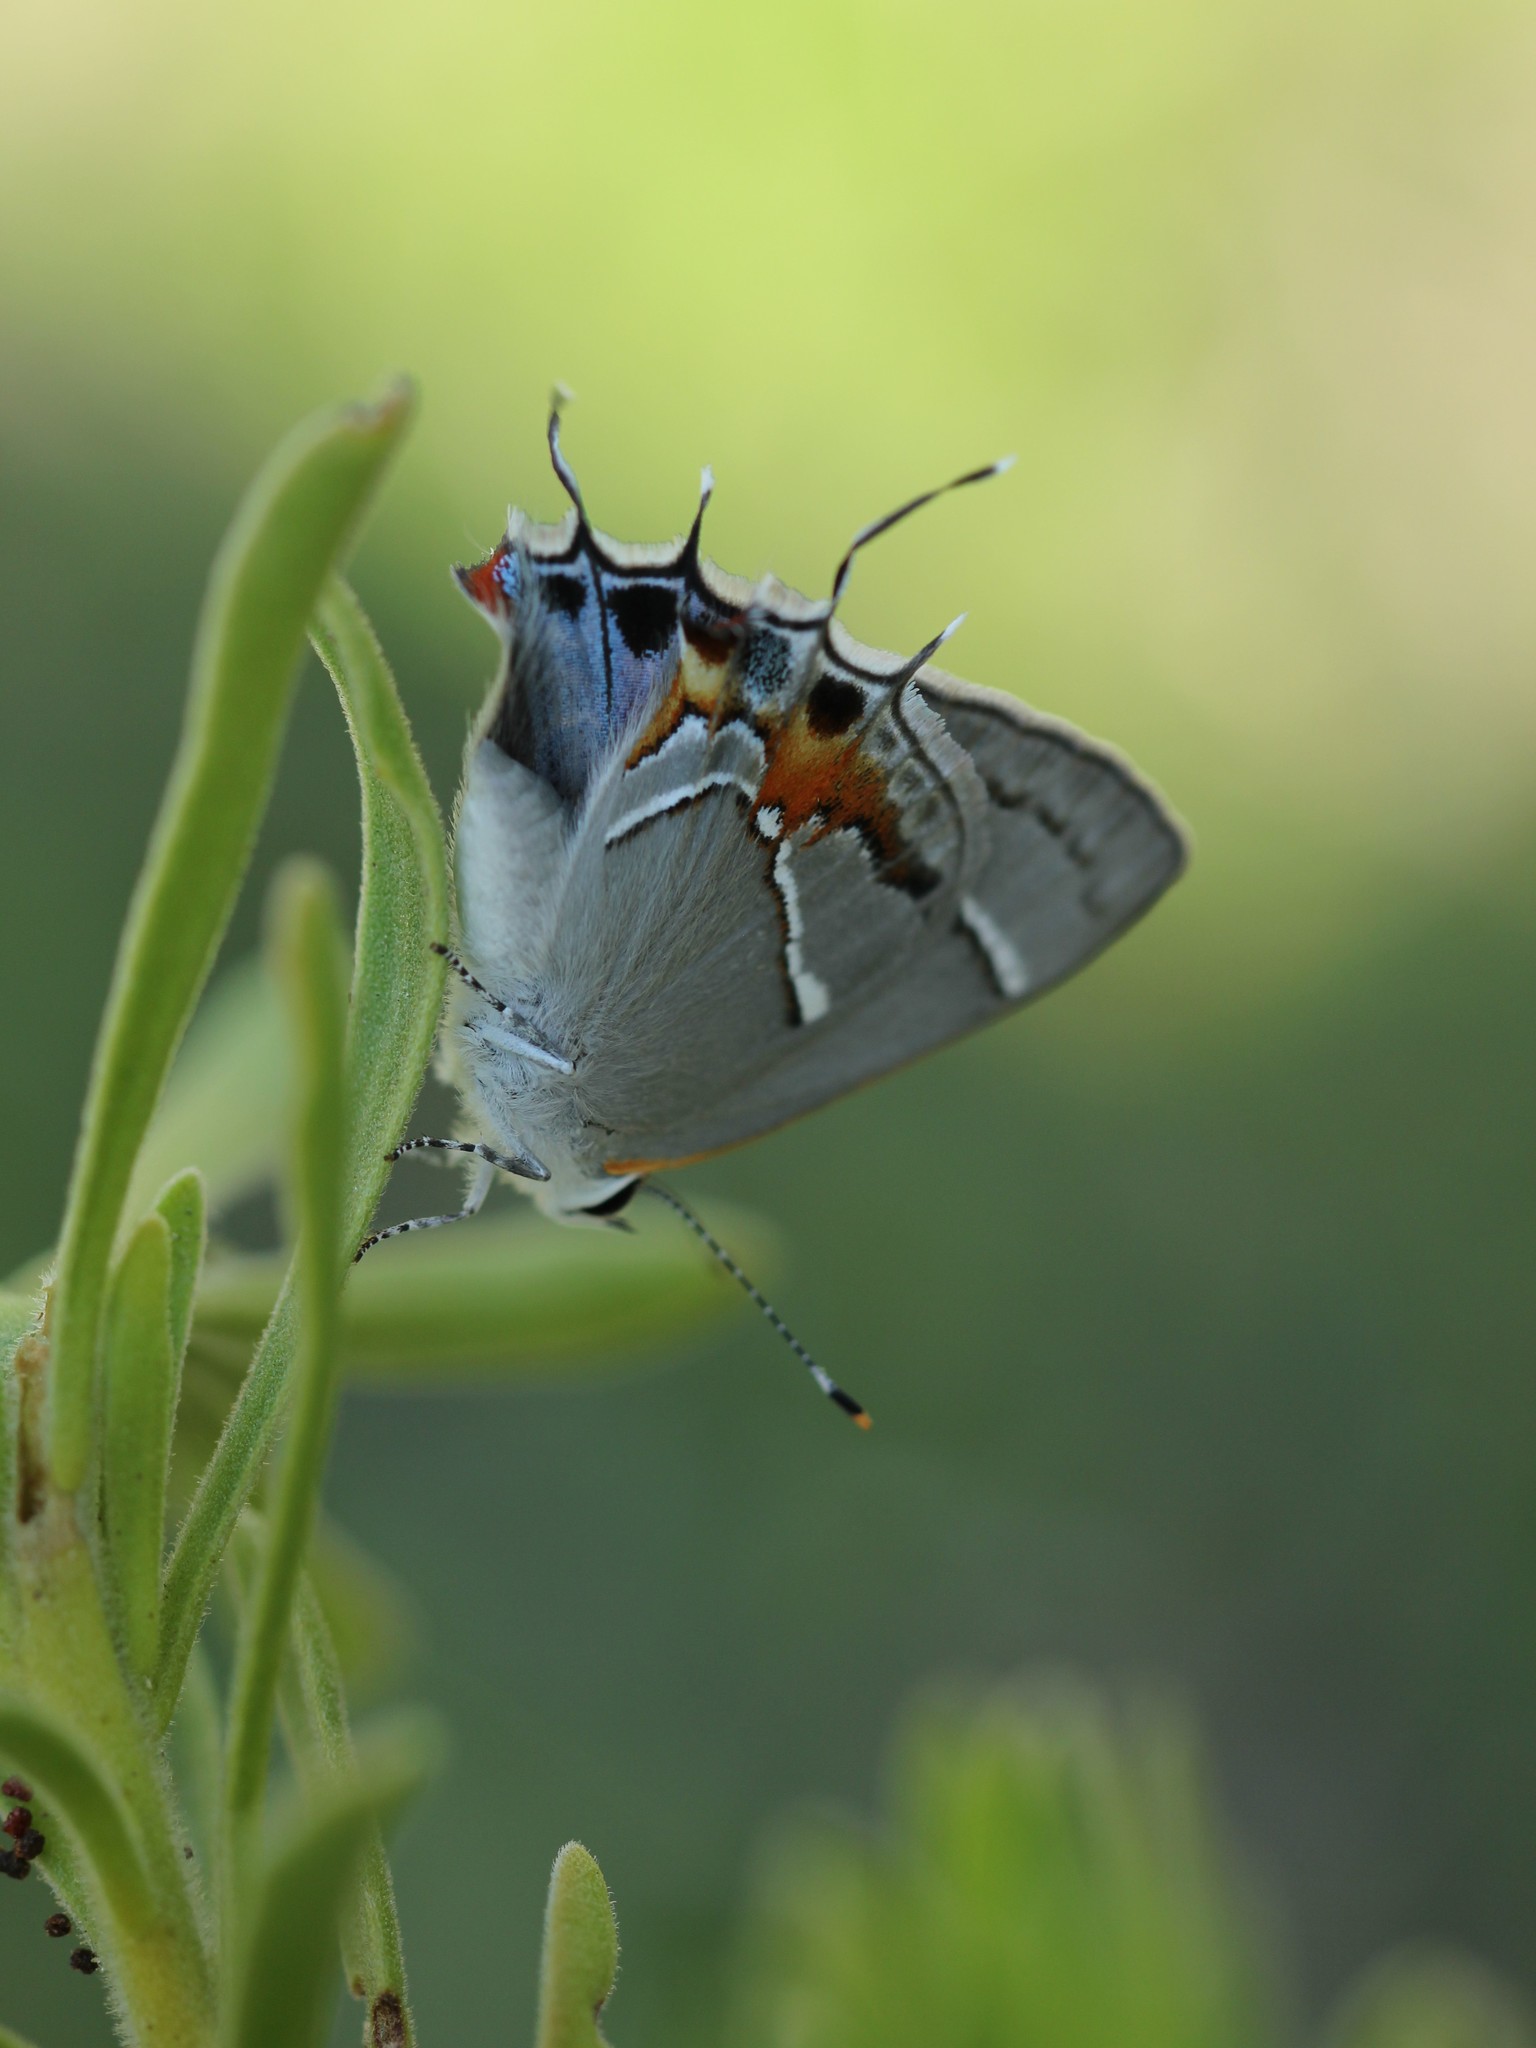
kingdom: Animalia
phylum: Arthropoda
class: Insecta
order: Lepidoptera
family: Lycaenidae
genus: Thecla
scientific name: Thecla martialis
